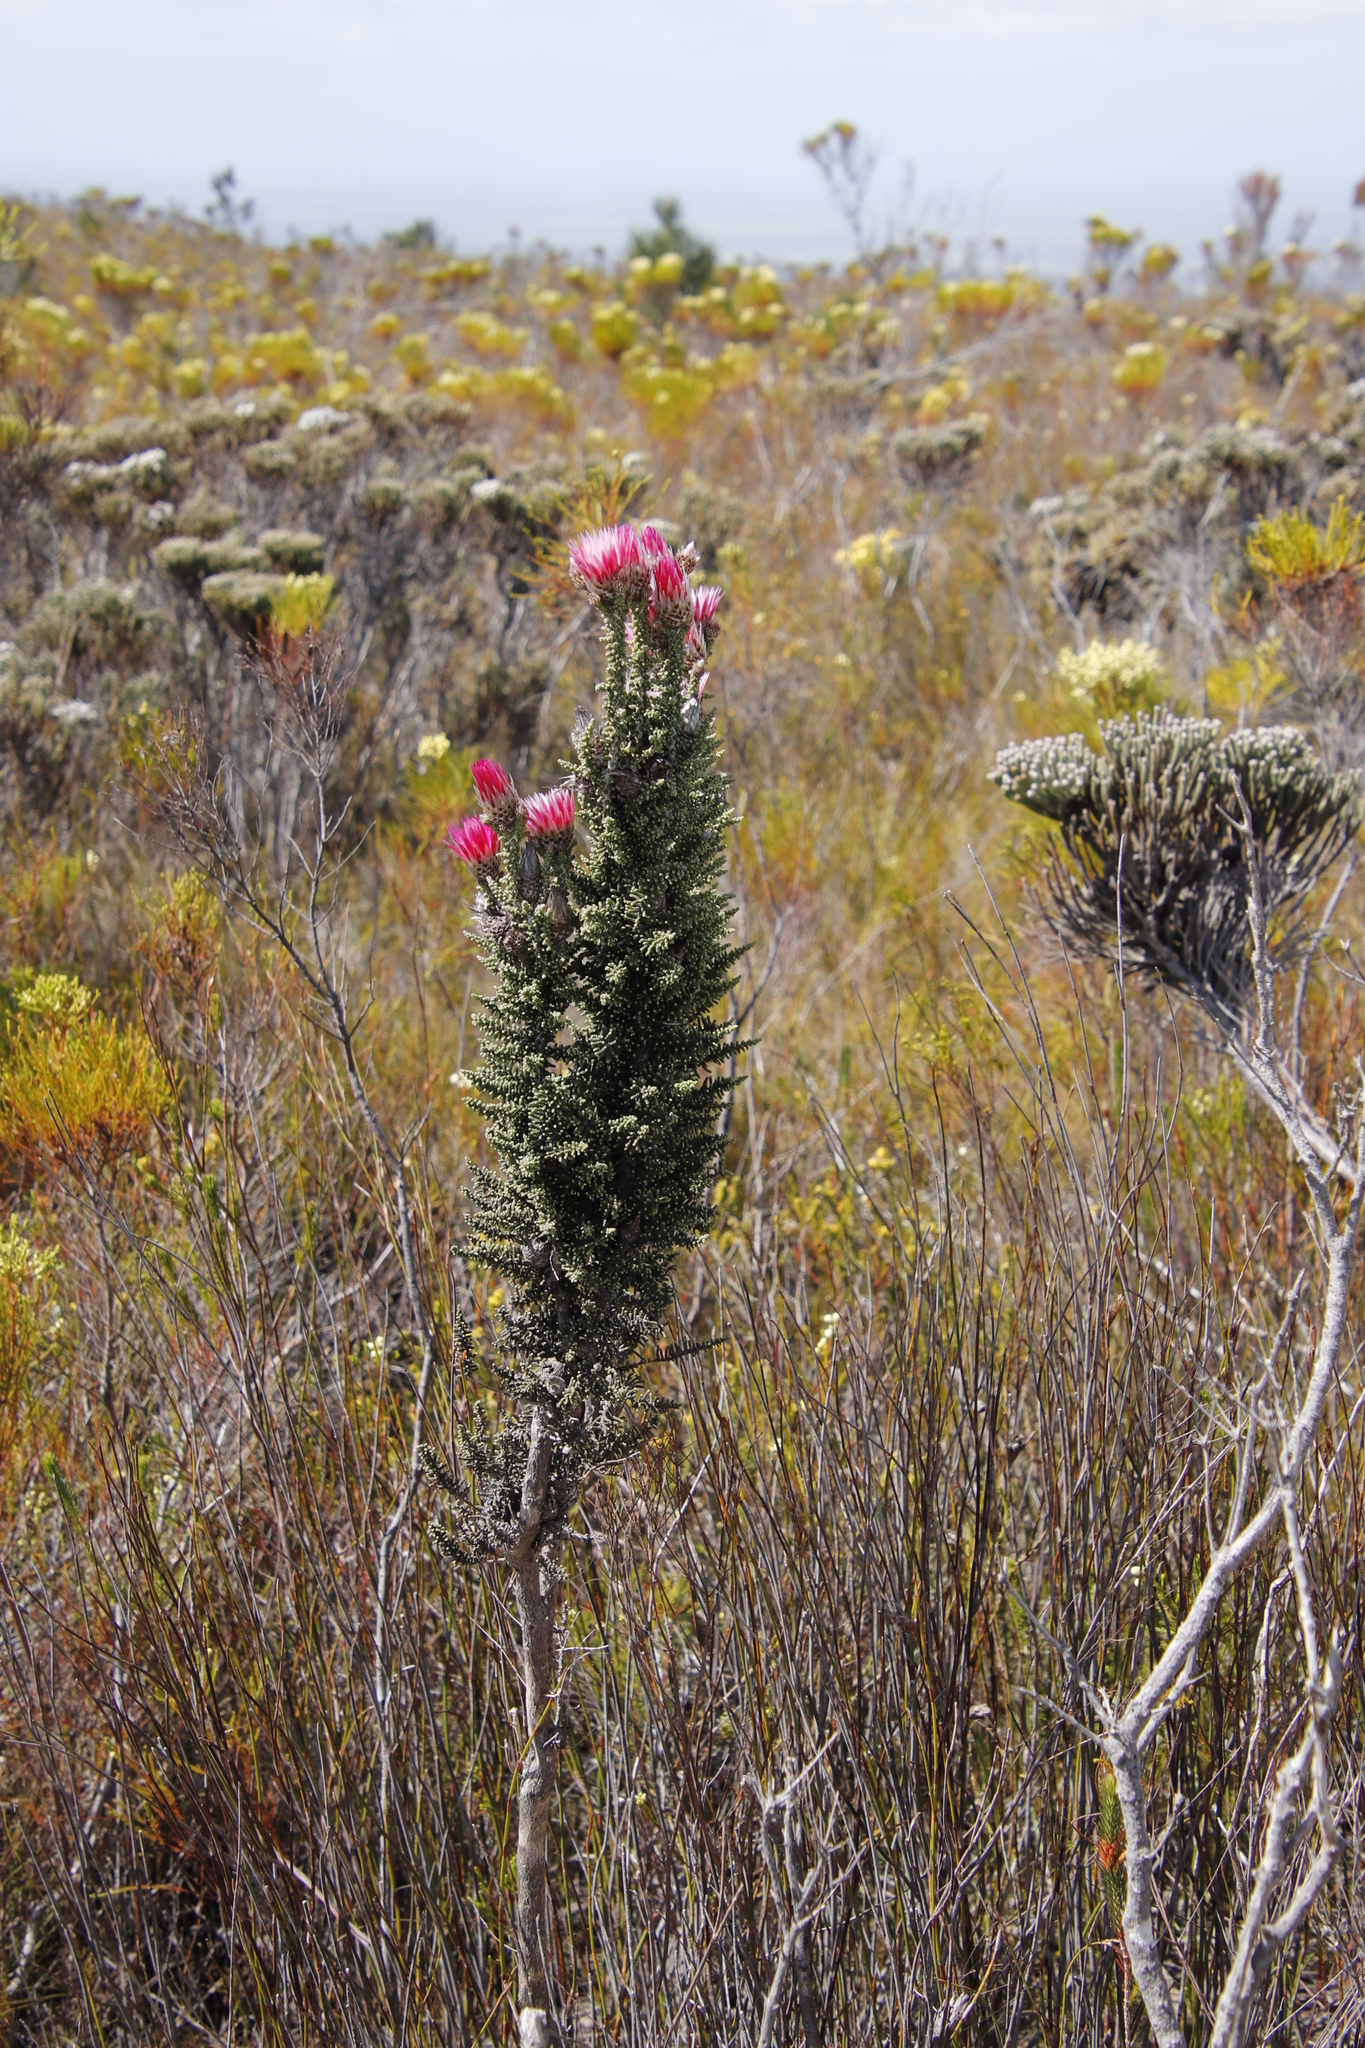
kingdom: Plantae
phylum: Tracheophyta
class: Magnoliopsida
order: Asterales
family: Asteraceae
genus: Phaenocoma
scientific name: Phaenocoma prolifera
